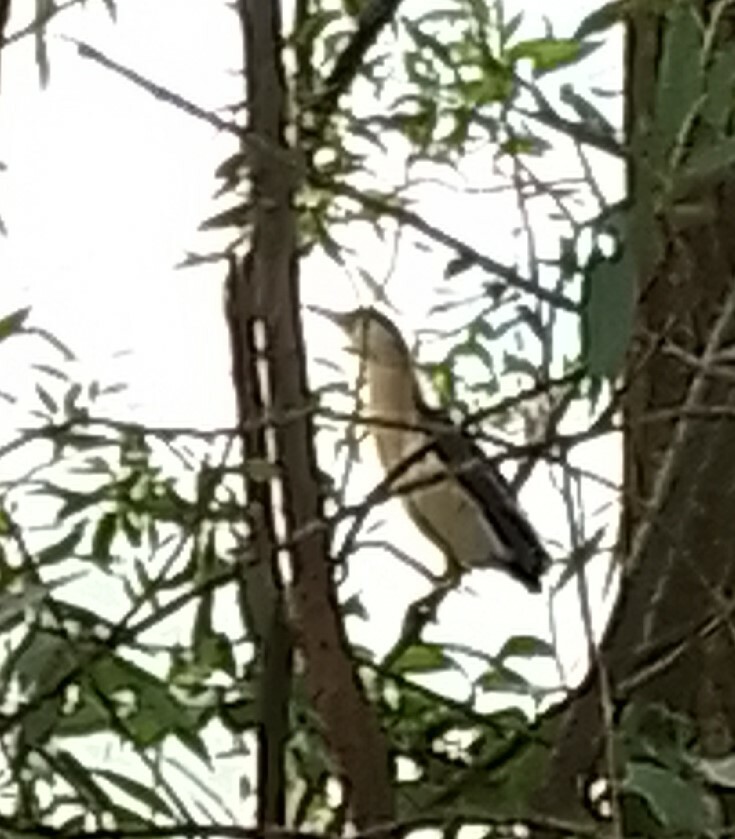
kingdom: Animalia
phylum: Chordata
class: Aves
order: Pelecaniformes
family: Ardeidae
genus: Ixobrychus
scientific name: Ixobrychus minutus
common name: Little bittern
